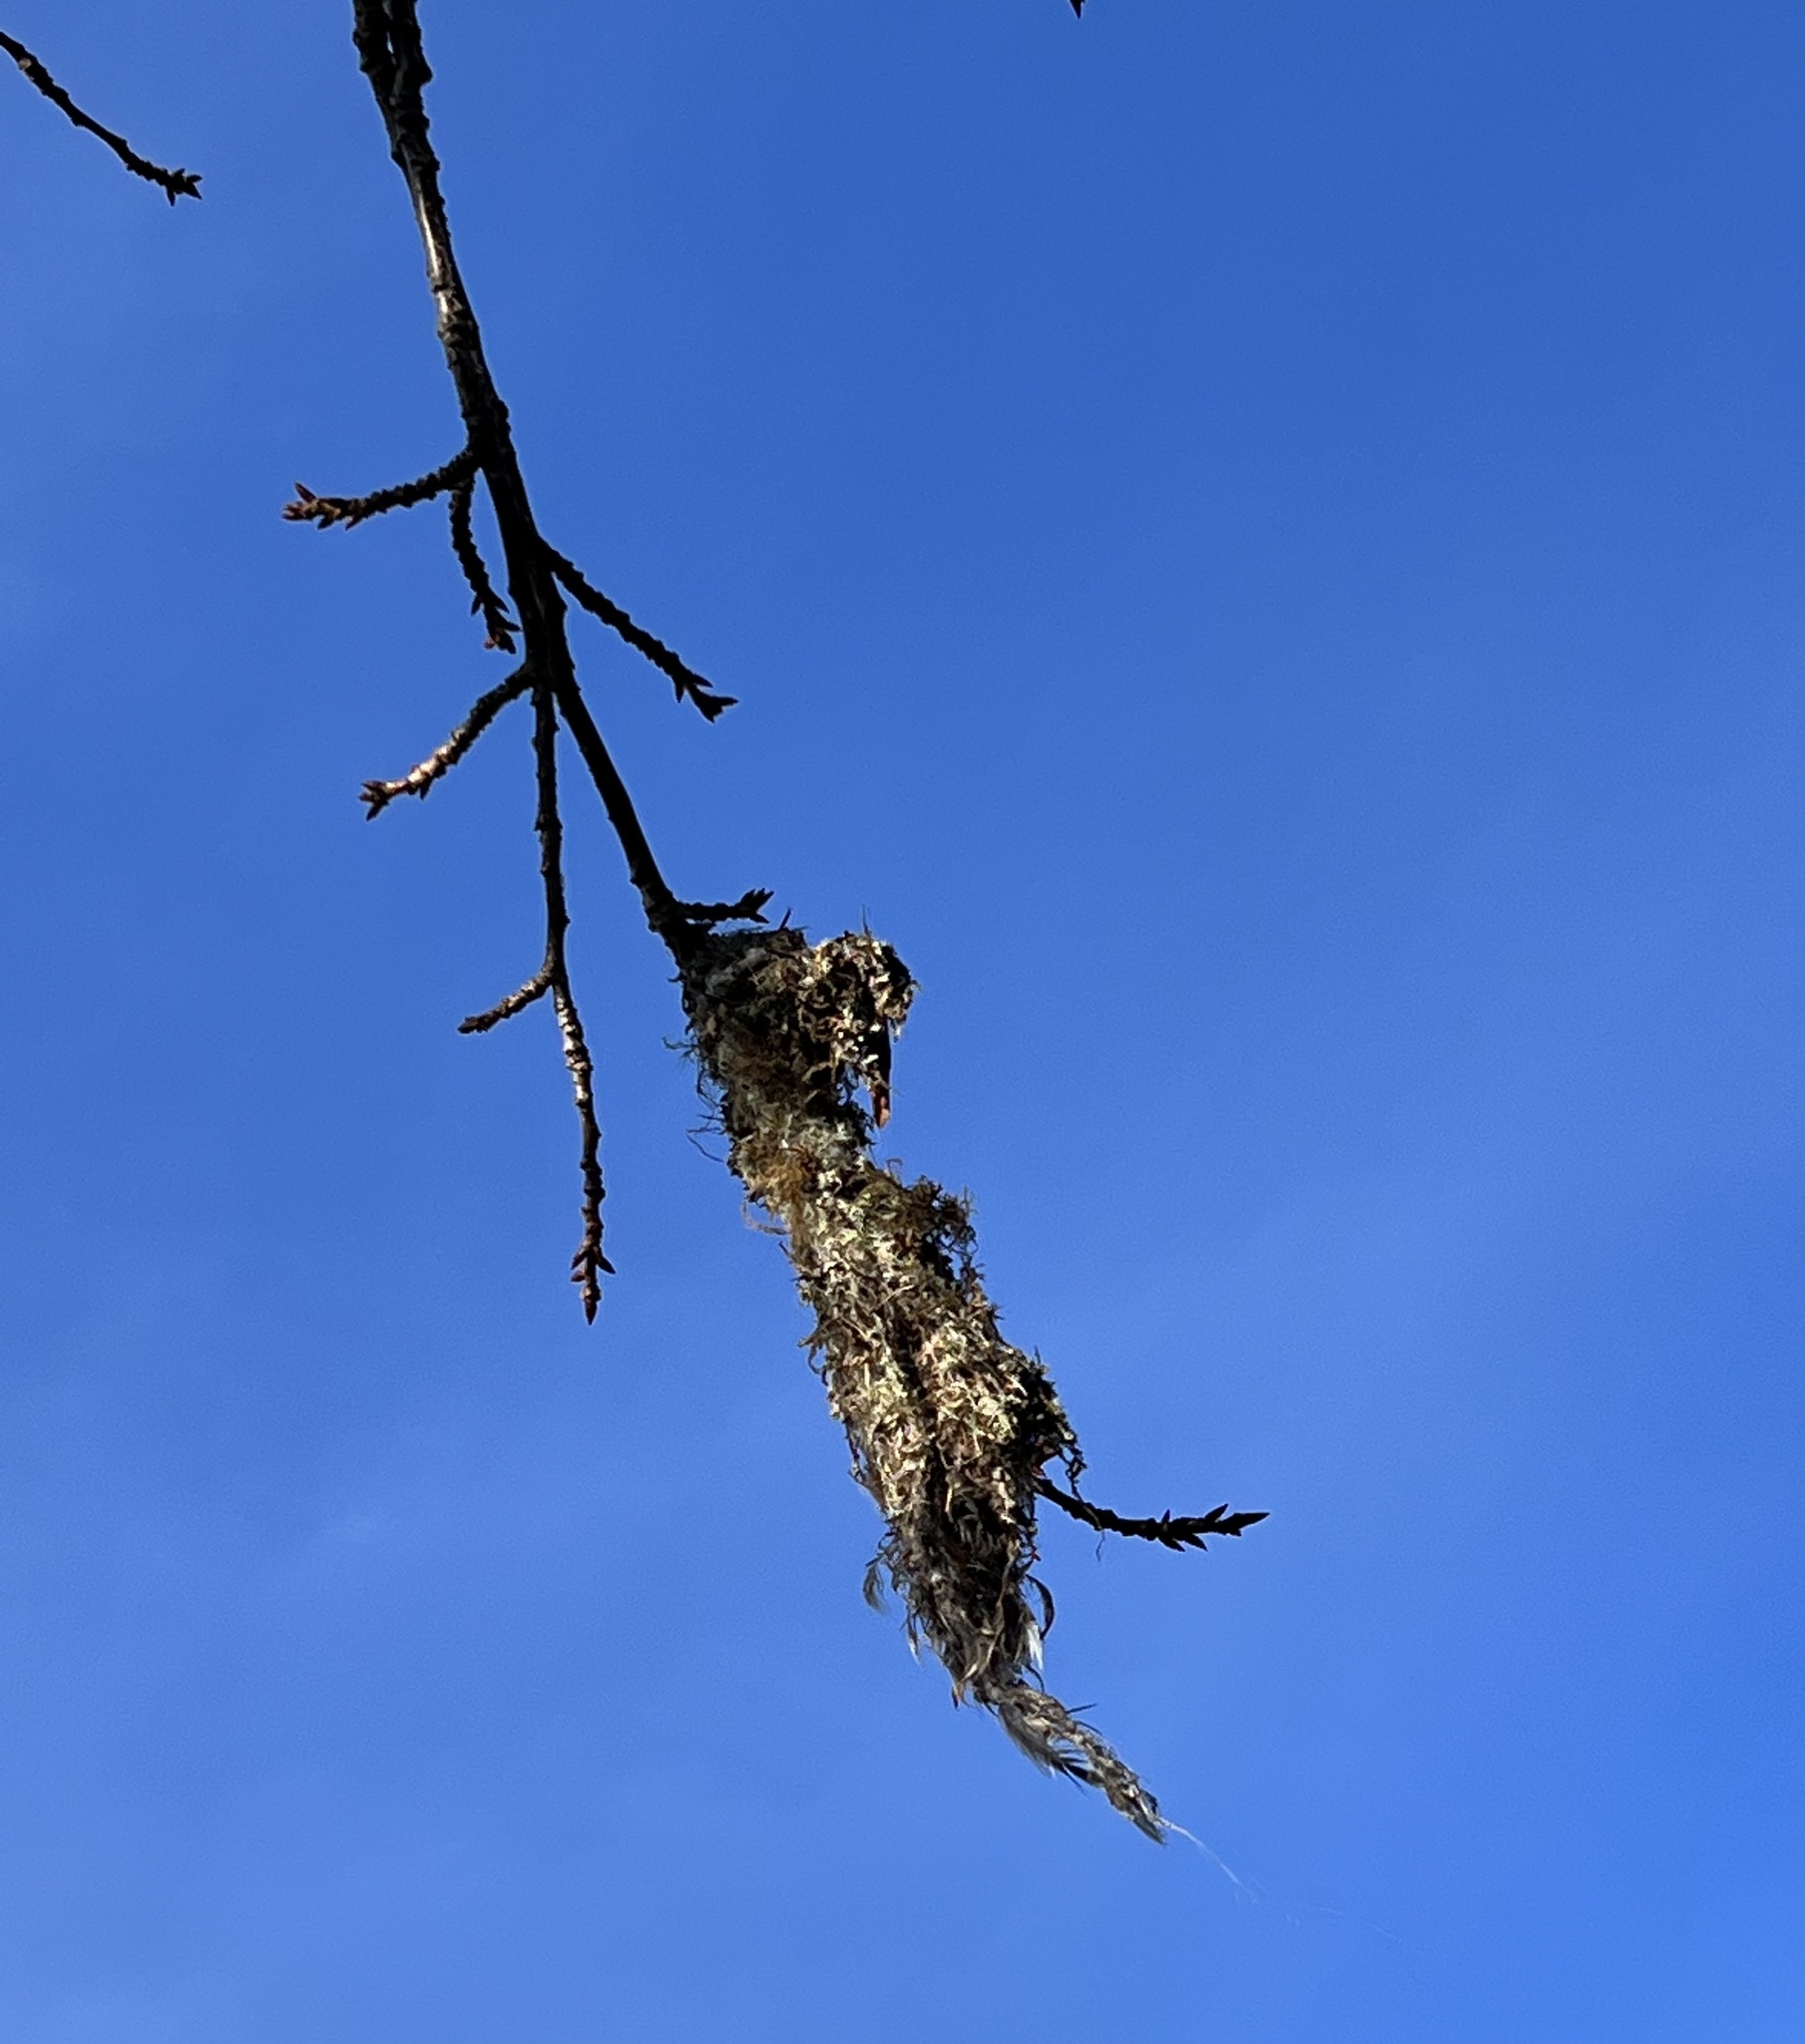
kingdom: Animalia
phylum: Chordata
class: Aves
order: Passeriformes
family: Aegithalidae
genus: Psaltriparus
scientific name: Psaltriparus minimus
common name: American bushtit
